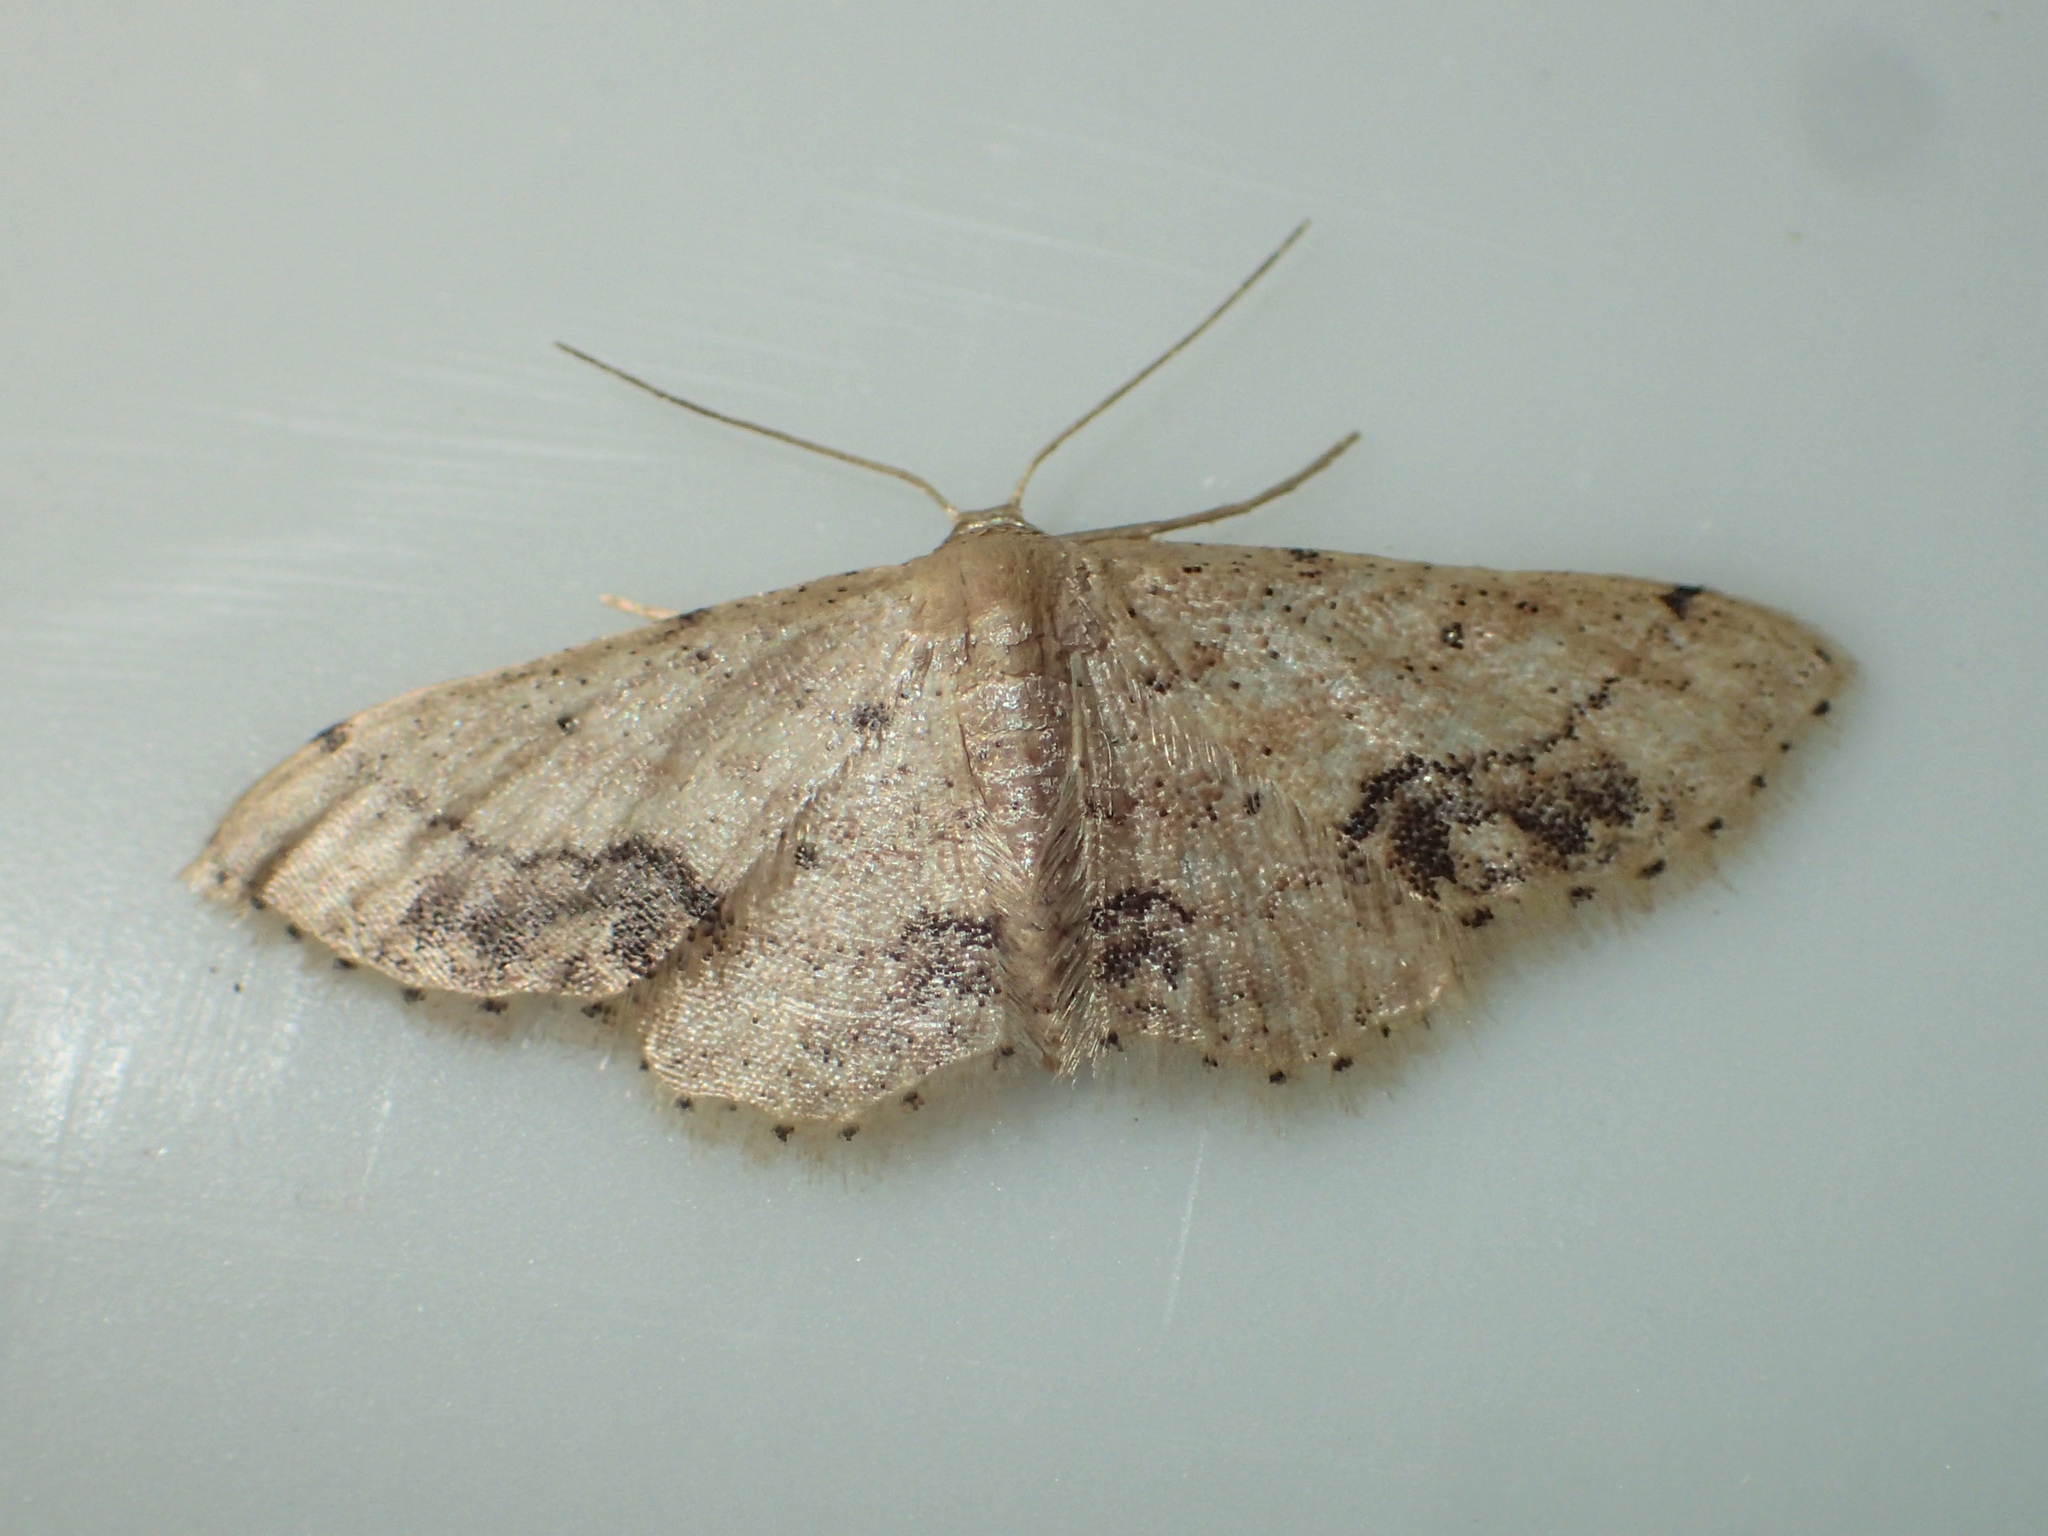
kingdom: Animalia
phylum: Arthropoda
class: Insecta
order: Lepidoptera
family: Geometridae
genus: Idaea
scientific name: Idaea chotaria
